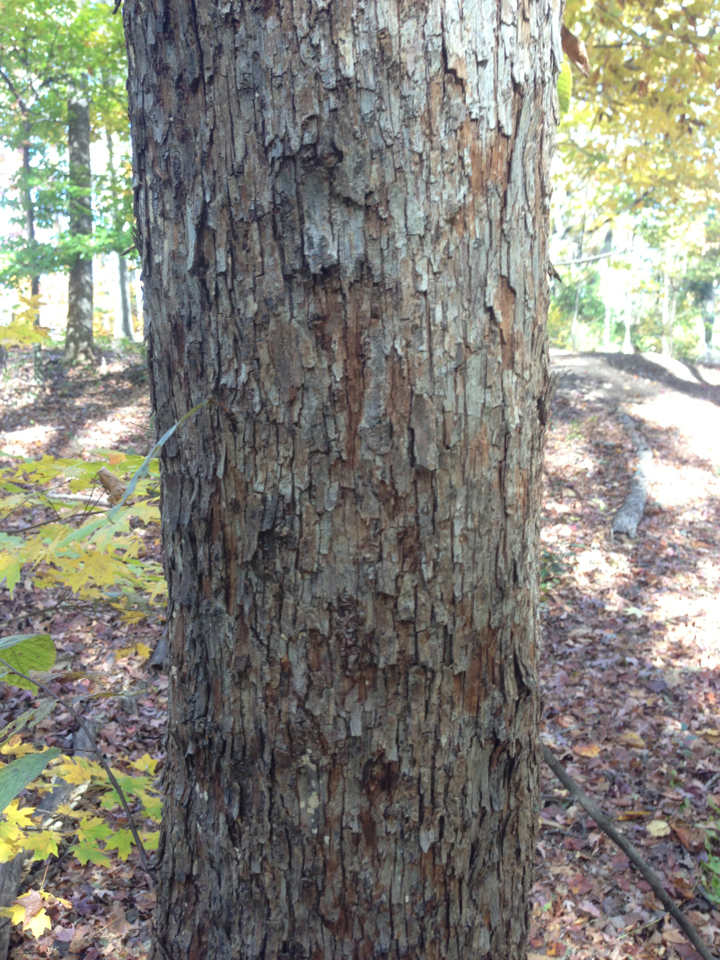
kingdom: Plantae
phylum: Tracheophyta
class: Magnoliopsida
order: Fagales
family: Betulaceae
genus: Ostrya
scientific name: Ostrya virginiana
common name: Ironwood
